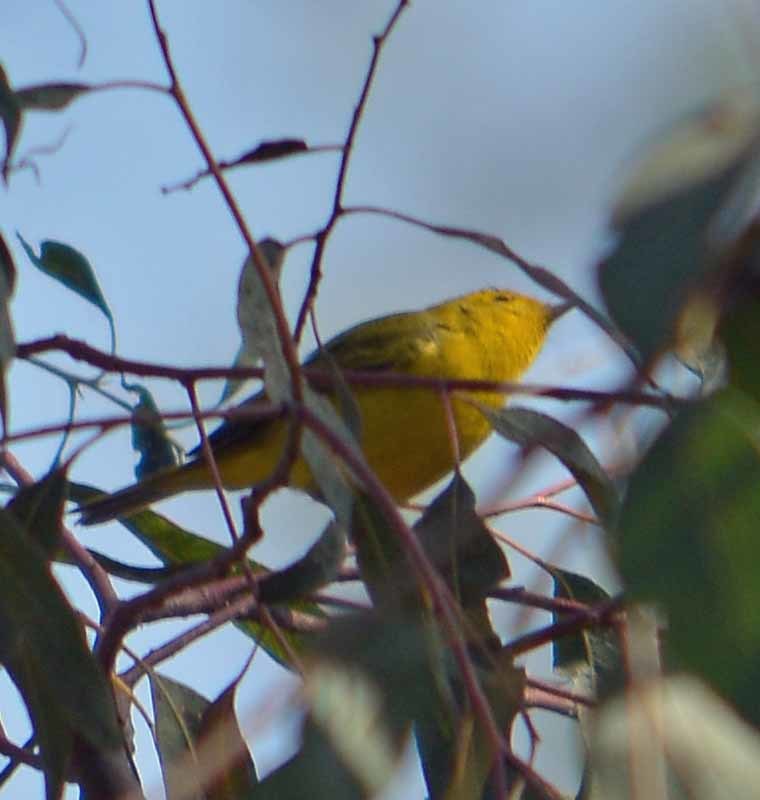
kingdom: Animalia
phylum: Chordata
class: Aves
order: Passeriformes
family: Parulidae
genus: Cardellina
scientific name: Cardellina pusilla
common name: Wilson's warbler
